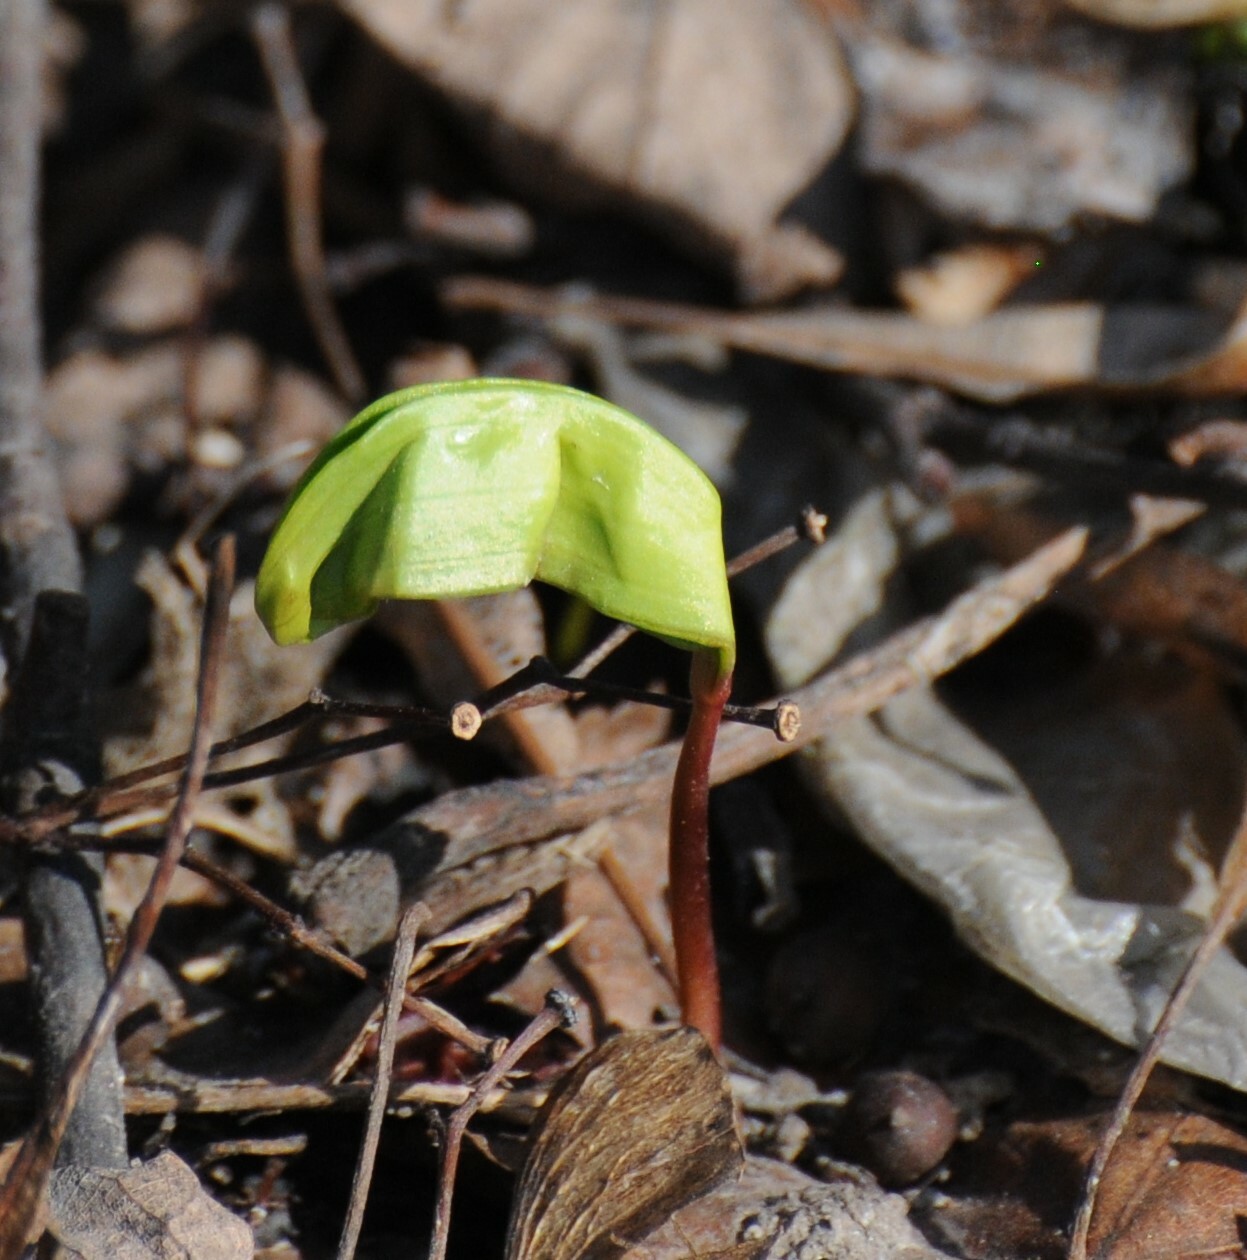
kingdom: Plantae
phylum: Tracheophyta
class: Magnoliopsida
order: Sapindales
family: Sapindaceae
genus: Acer
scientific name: Acer platanoides
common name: Norway maple
